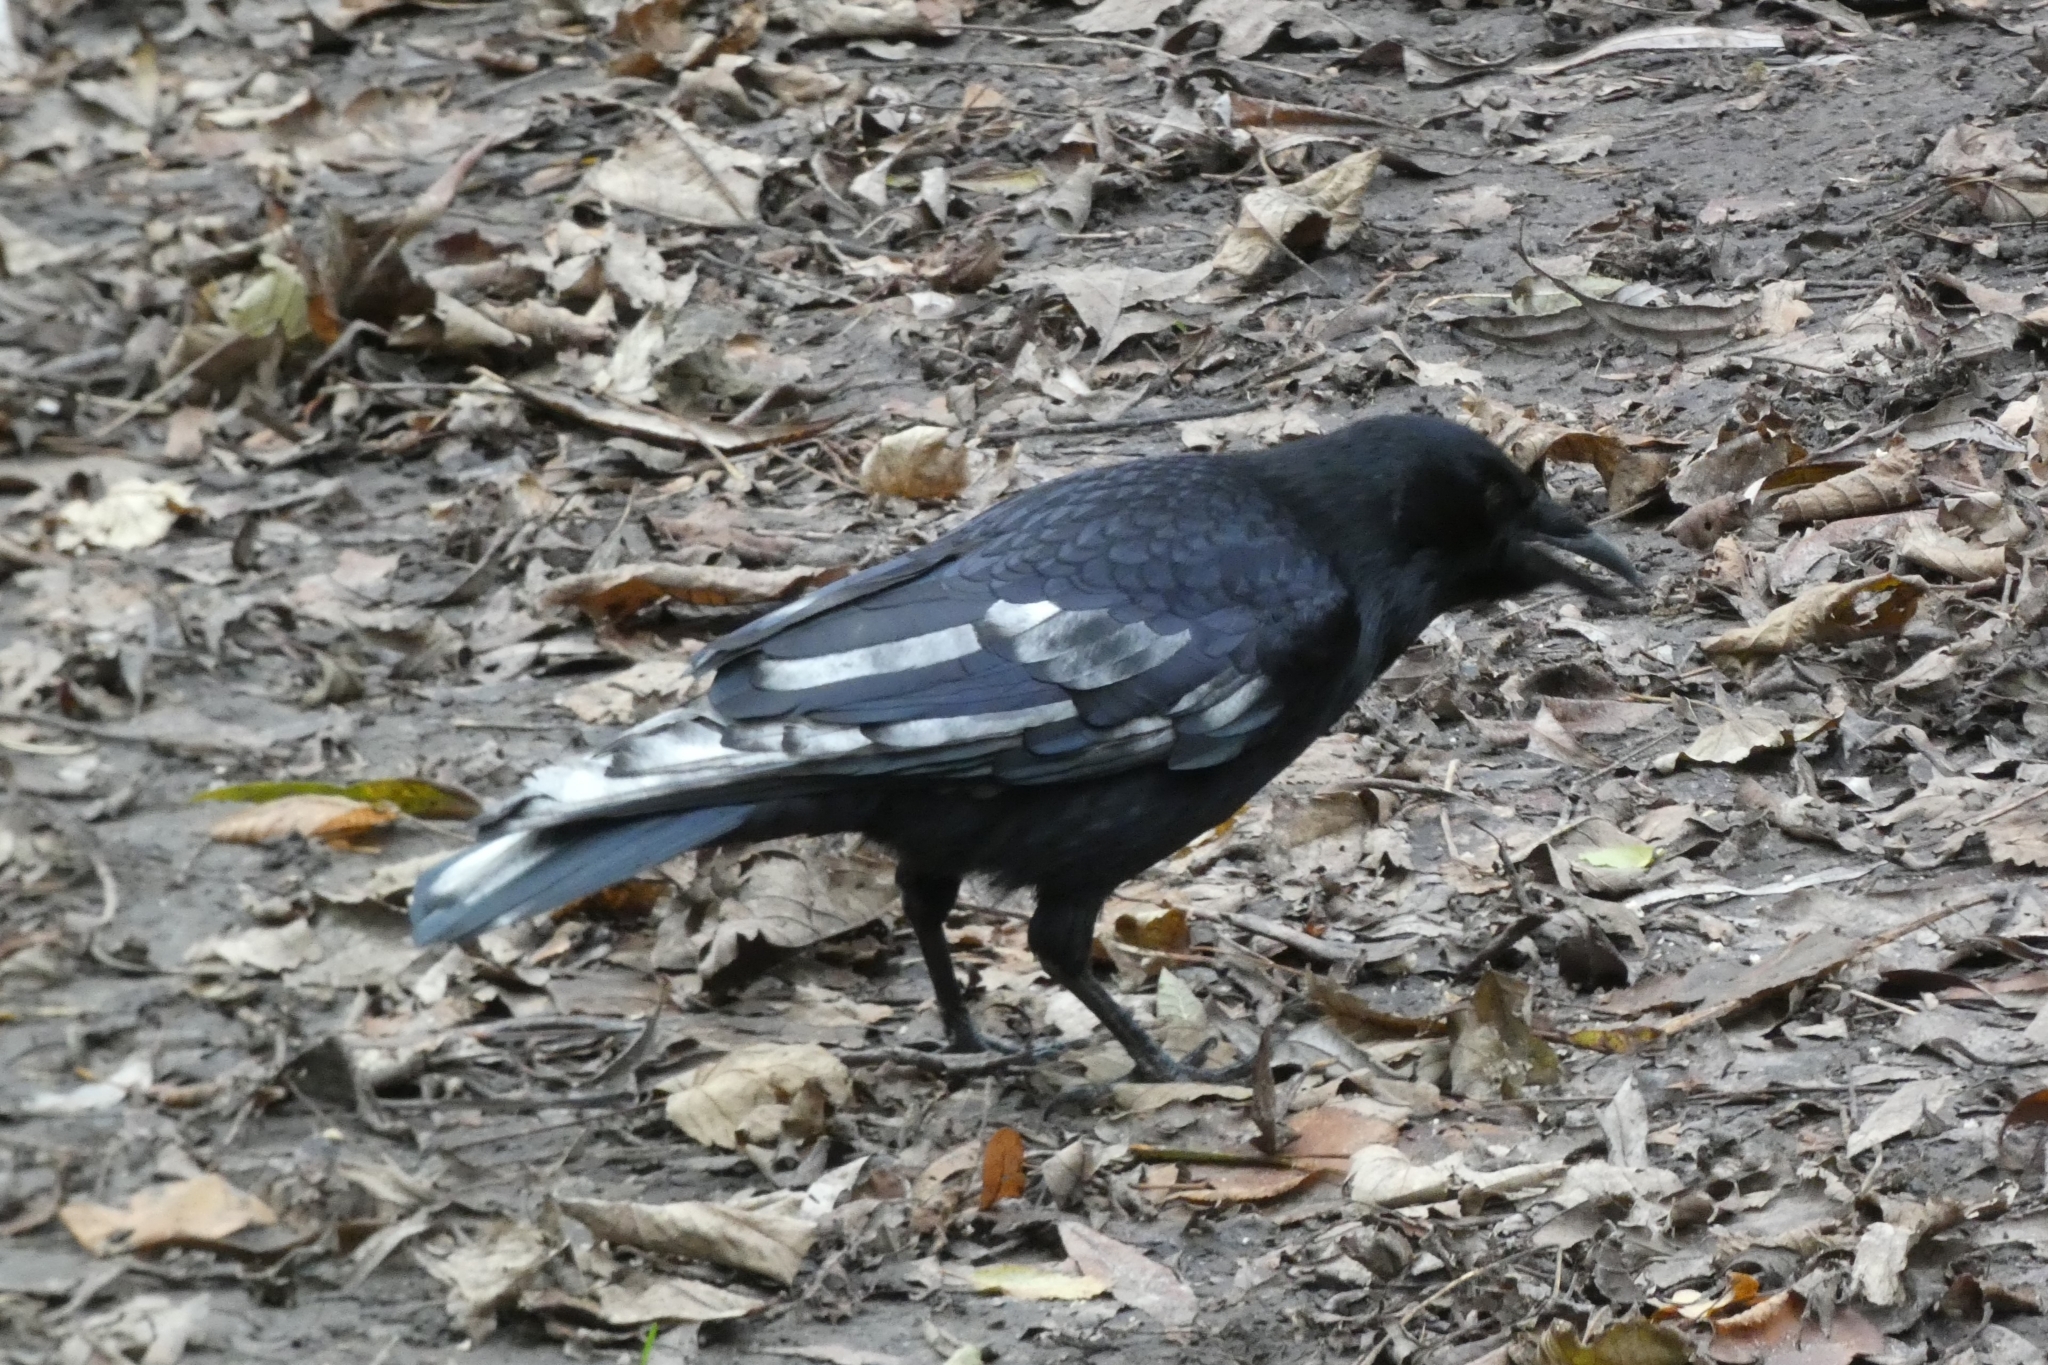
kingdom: Animalia
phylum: Chordata
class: Aves
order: Passeriformes
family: Corvidae
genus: Corvus
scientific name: Corvus corone
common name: Carrion crow
